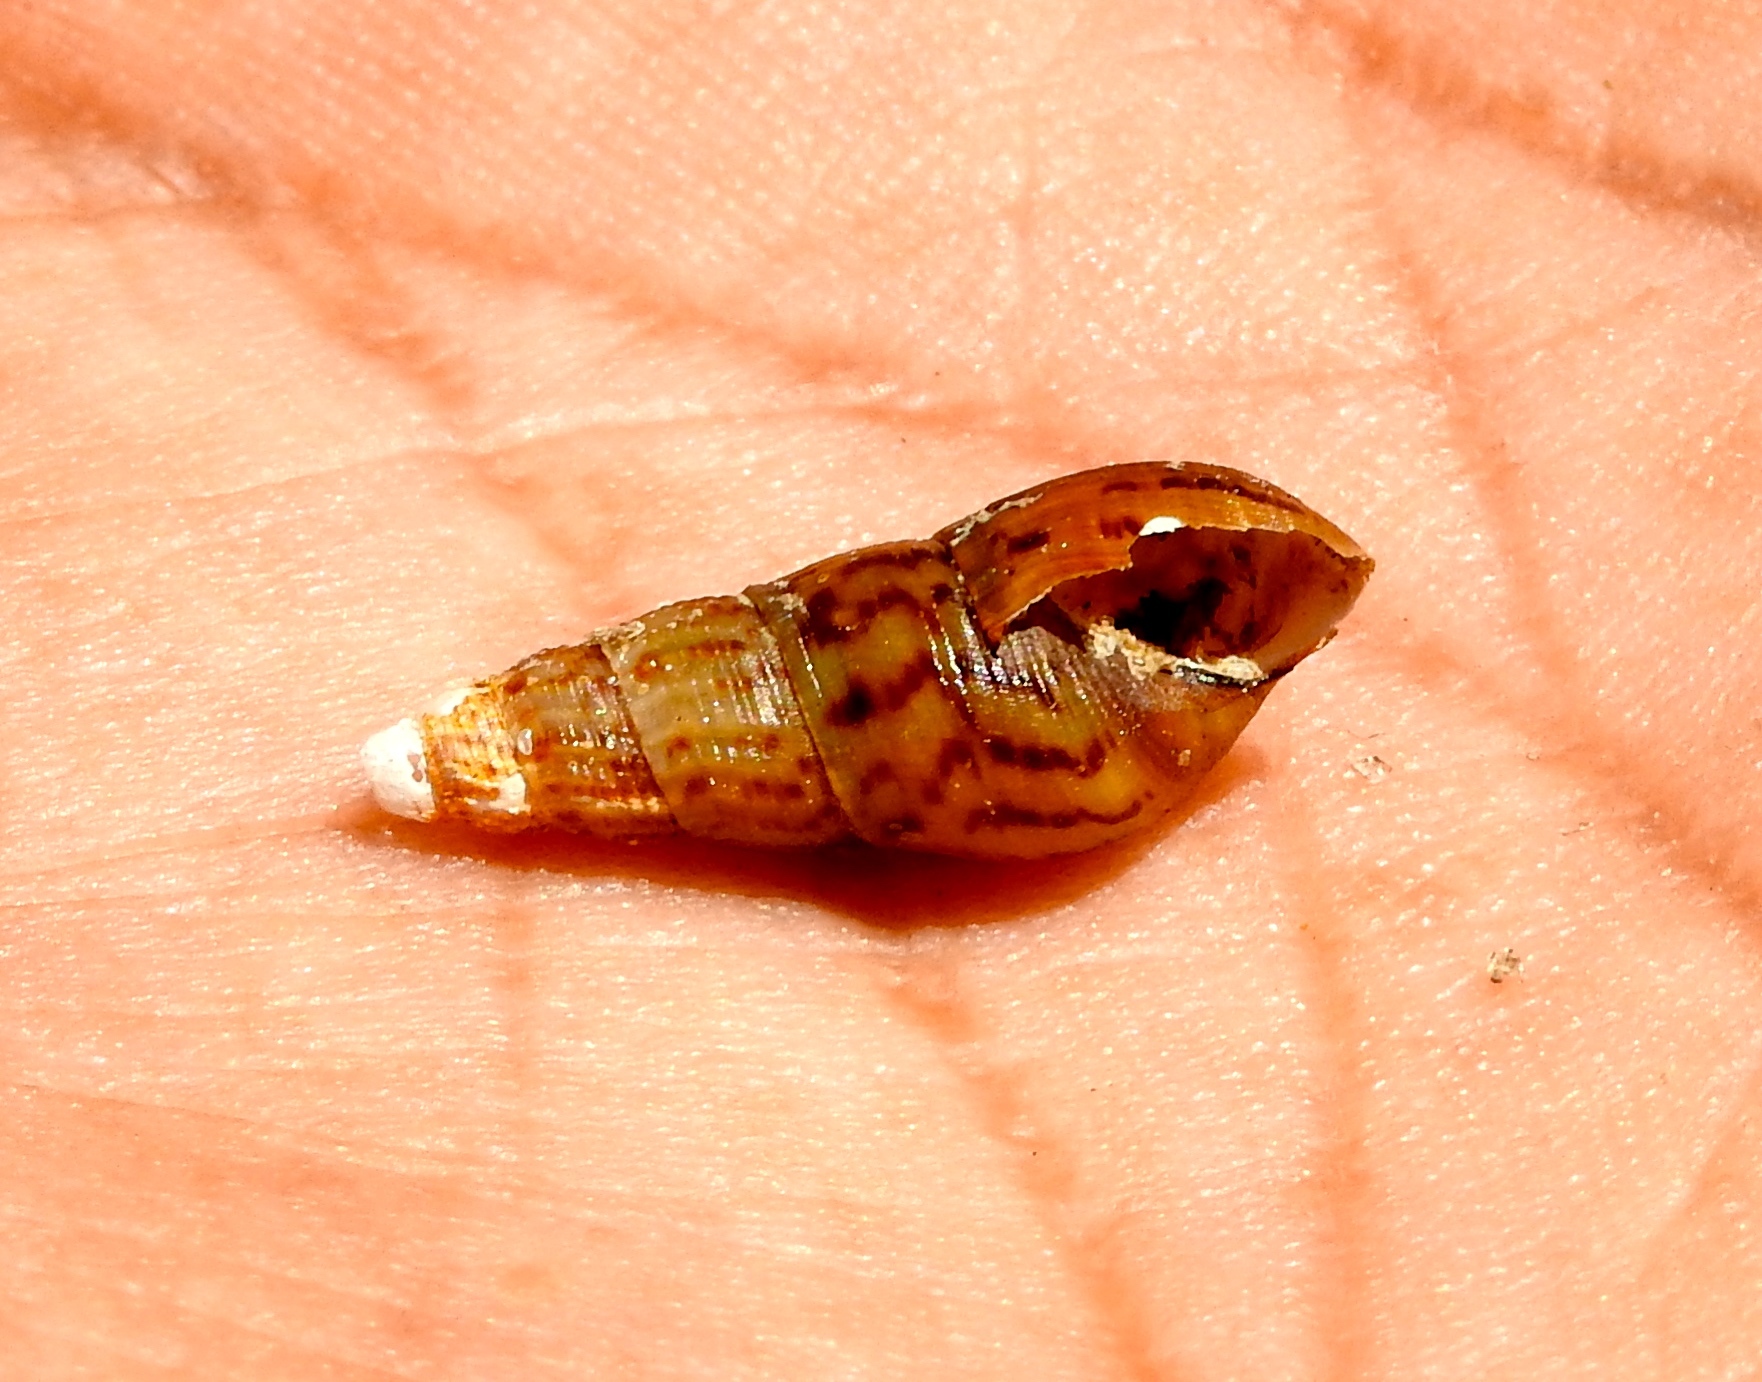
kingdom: Animalia
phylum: Mollusca
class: Gastropoda
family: Thiaridae
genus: Melanoides
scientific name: Melanoides tuberculata
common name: Red-rim melania
